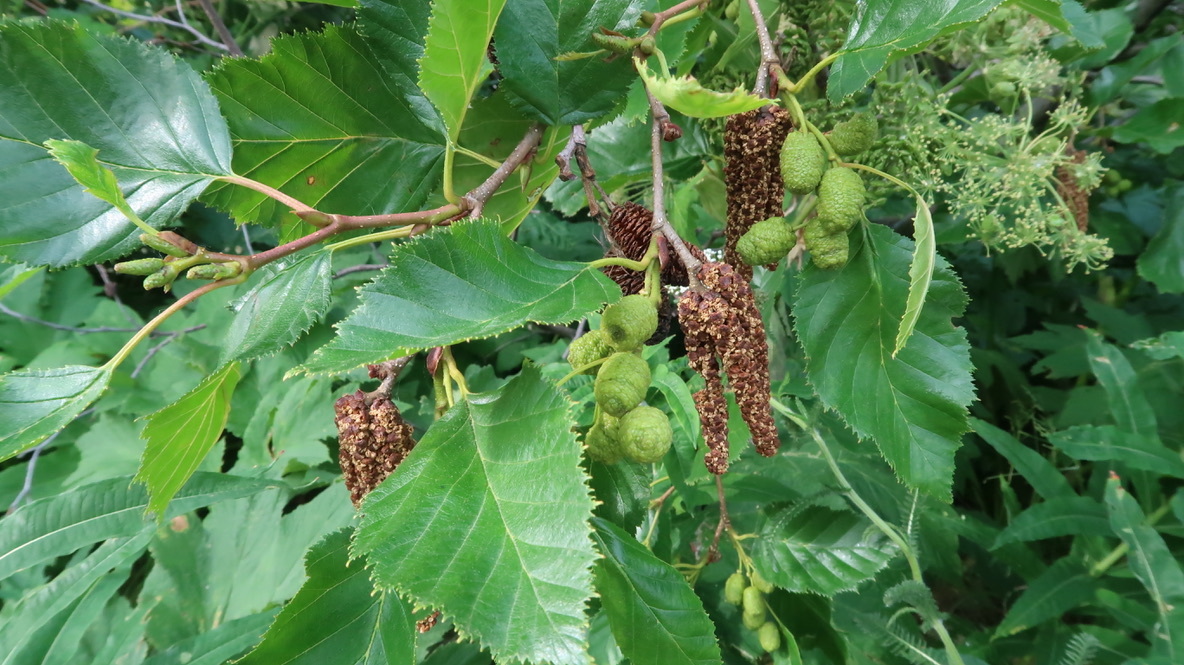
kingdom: Plantae
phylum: Tracheophyta
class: Magnoliopsida
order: Fagales
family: Betulaceae
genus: Alnus
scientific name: Alnus alnobetula
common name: Green alder
